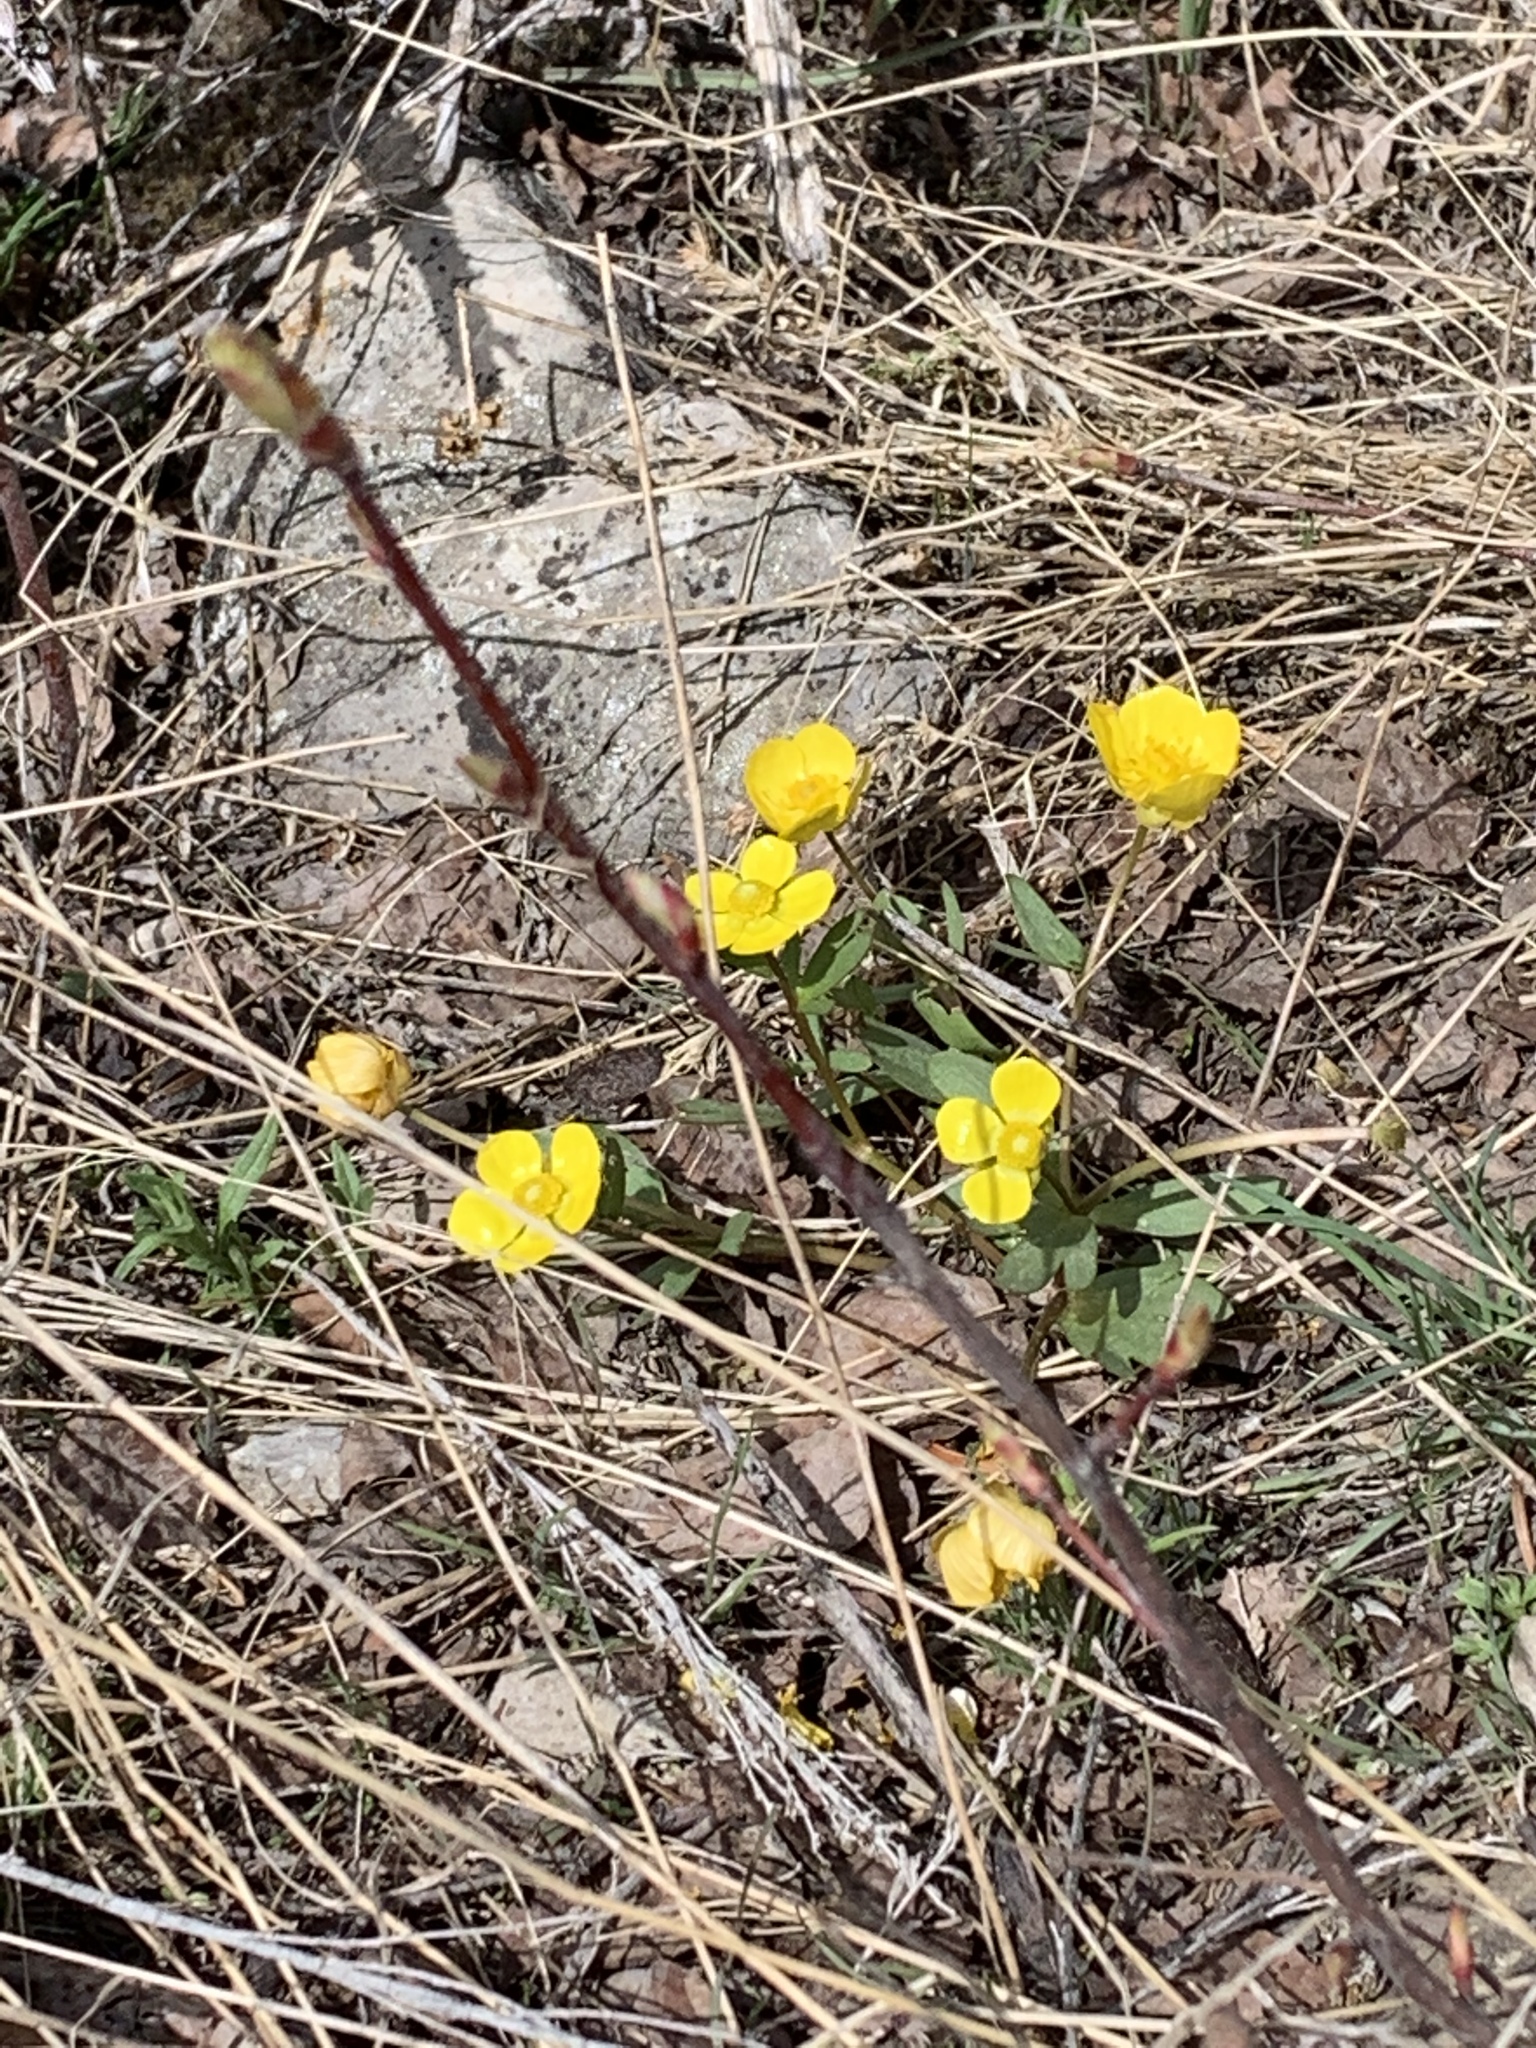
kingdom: Plantae
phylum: Tracheophyta
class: Magnoliopsida
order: Ranunculales
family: Ranunculaceae
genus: Ranunculus
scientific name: Ranunculus glaberrimus
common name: Sagebrush buttercup
